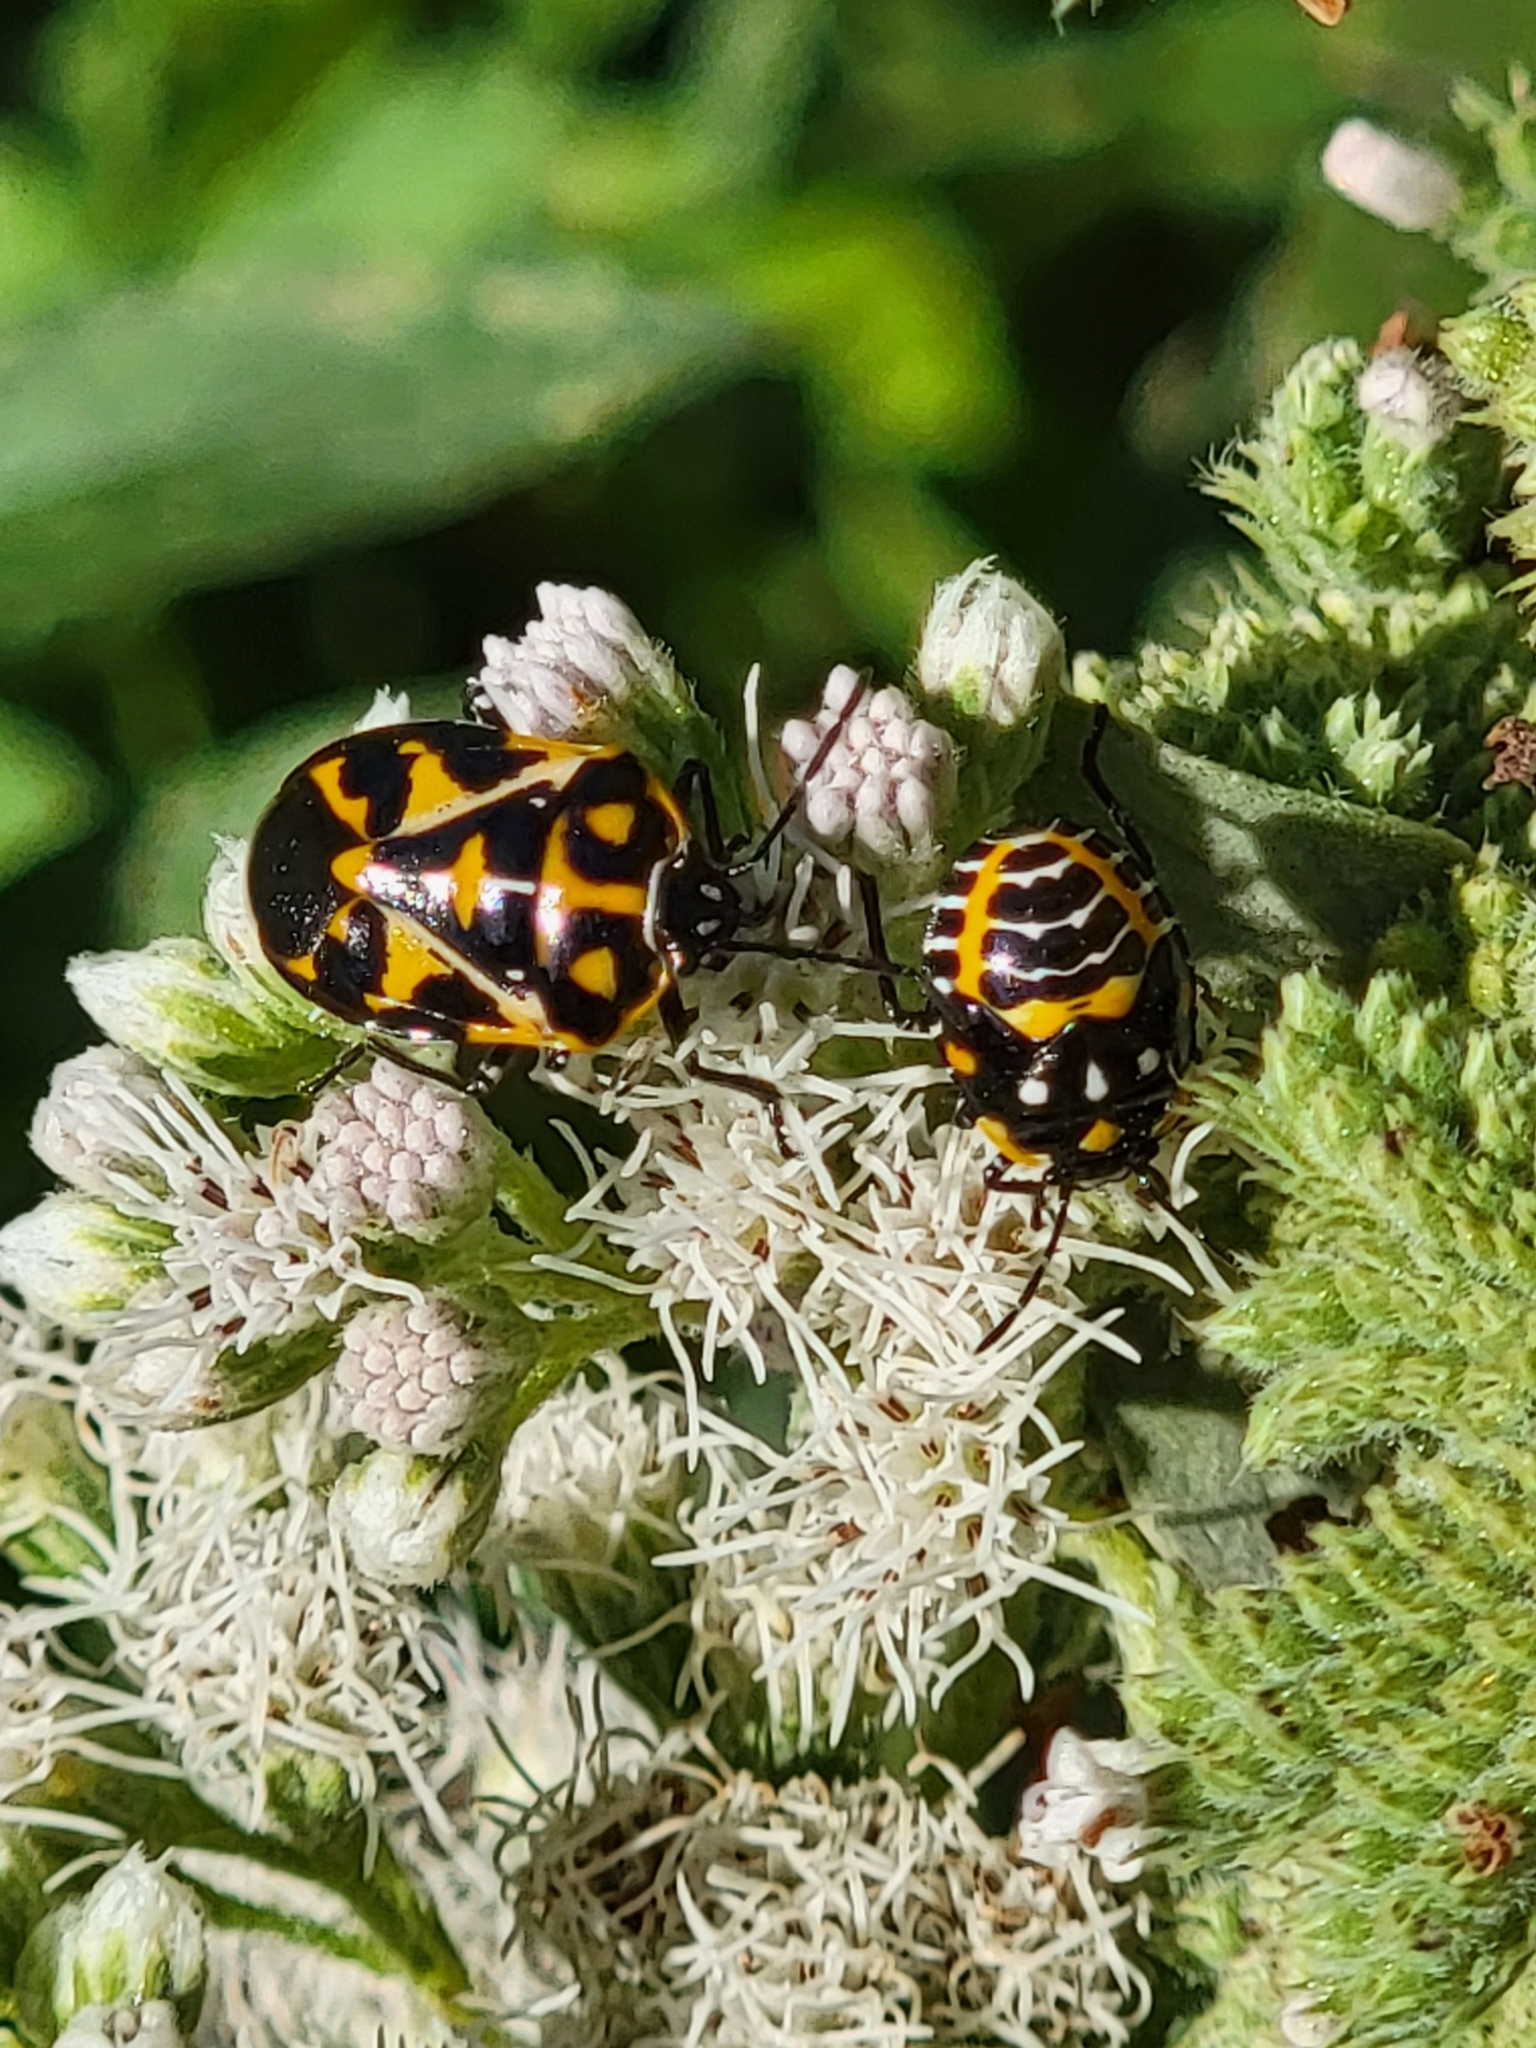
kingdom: Animalia
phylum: Arthropoda
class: Insecta
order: Hemiptera
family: Pentatomidae
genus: Murgantia
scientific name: Murgantia histrionica
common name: Harlequin bug
